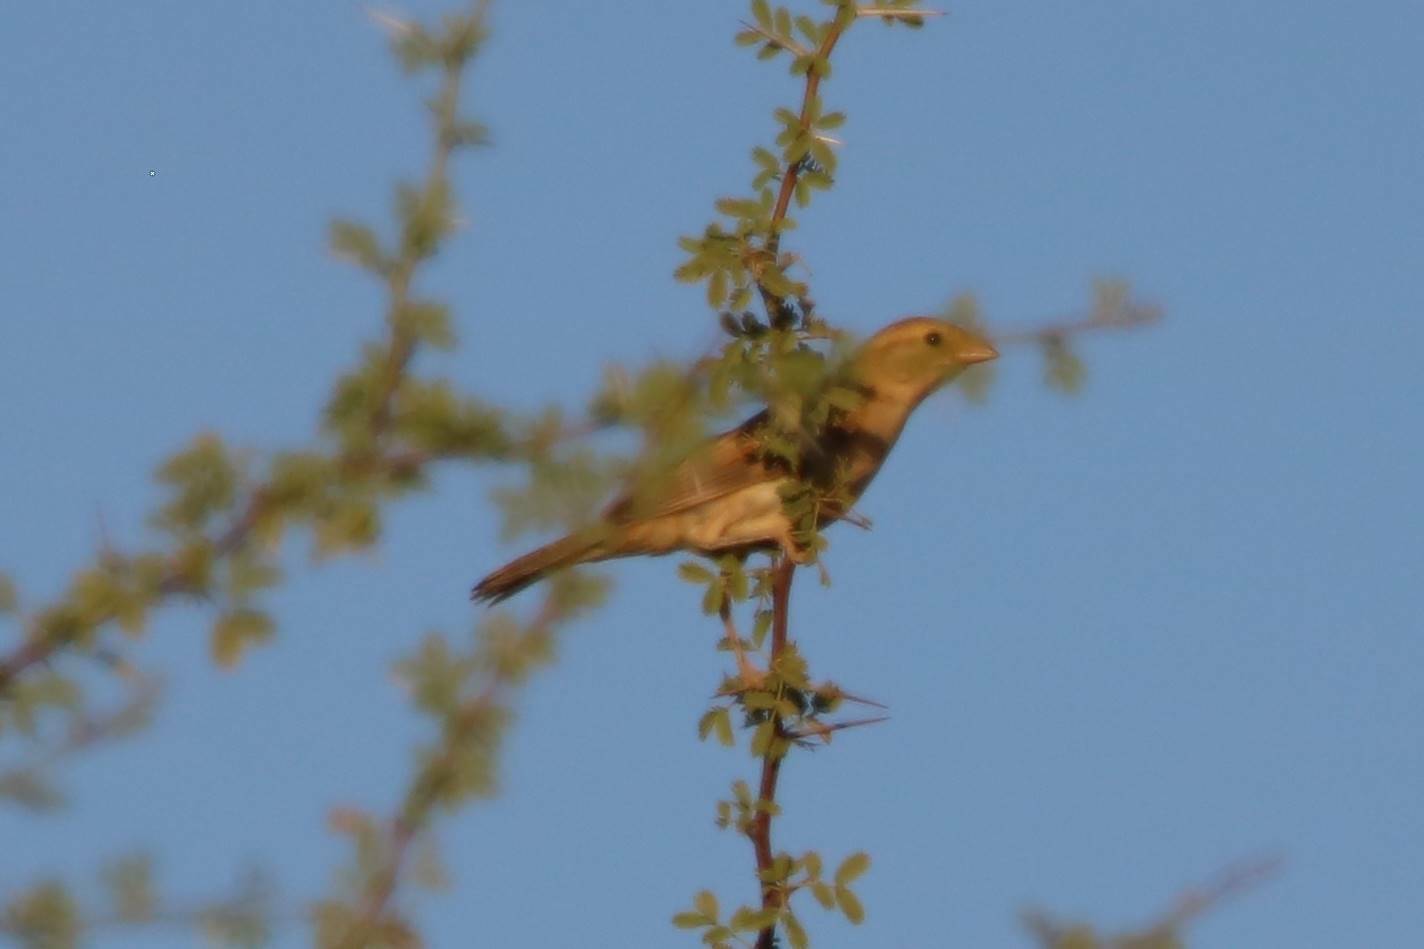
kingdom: Animalia
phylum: Chordata
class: Aves
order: Passeriformes
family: Passeridae
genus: Passer
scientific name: Passer luteus
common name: Sudan golden sparrow
